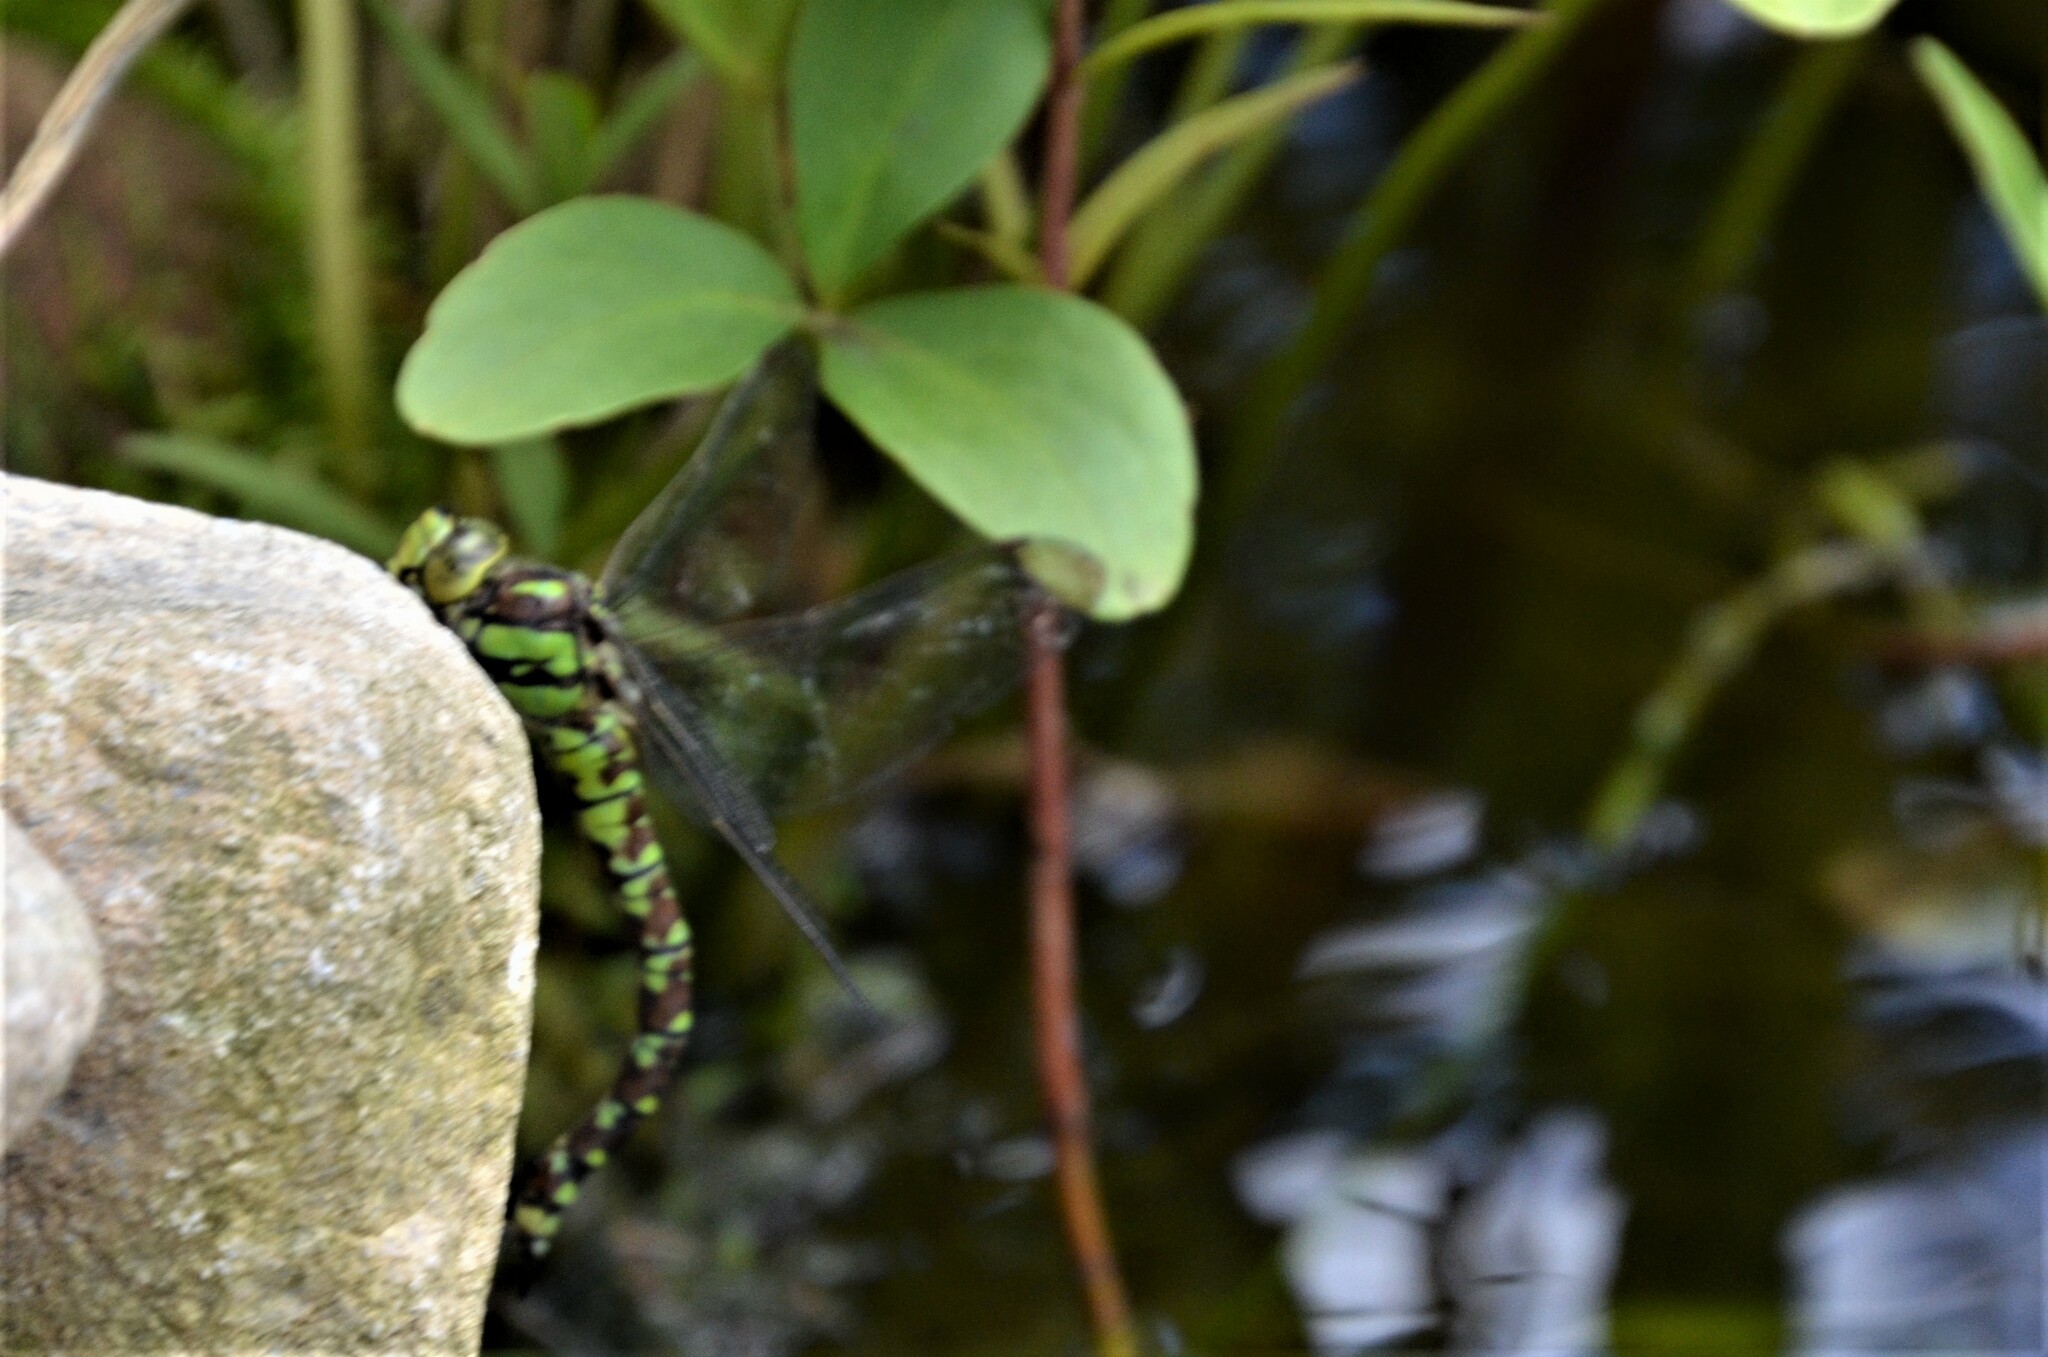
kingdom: Animalia
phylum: Arthropoda
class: Insecta
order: Odonata
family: Aeshnidae
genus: Aeshna
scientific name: Aeshna cyanea
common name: Southern hawker
